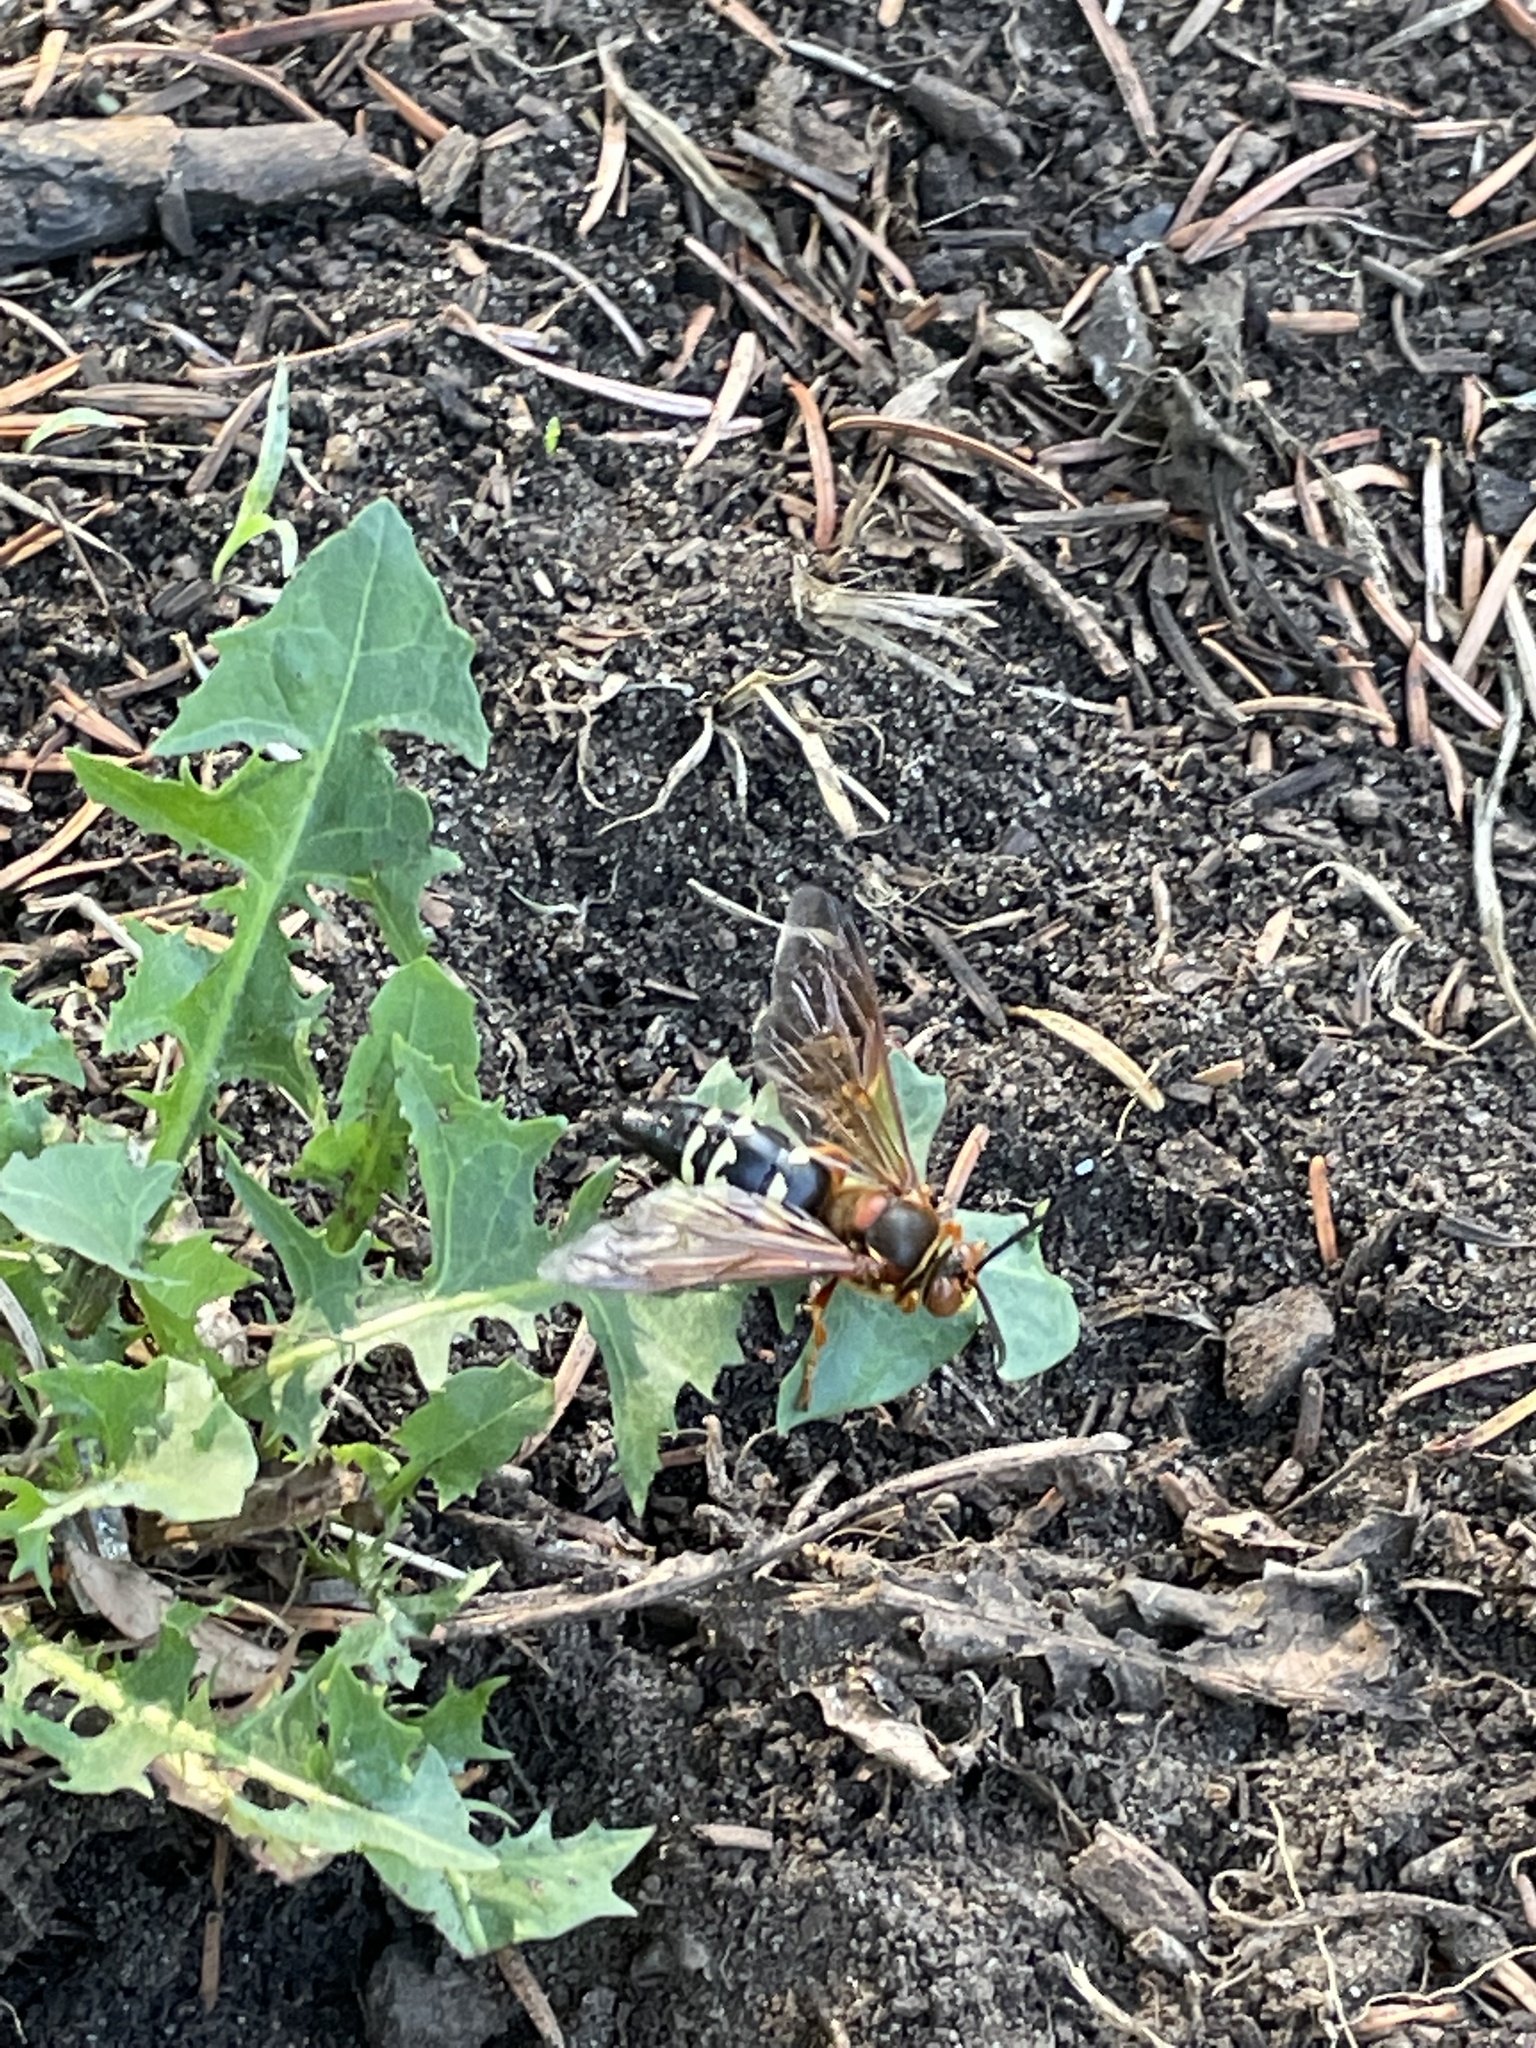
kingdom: Animalia
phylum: Arthropoda
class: Insecta
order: Hymenoptera
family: Crabronidae
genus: Sphecius
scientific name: Sphecius speciosus
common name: Cicada killer
